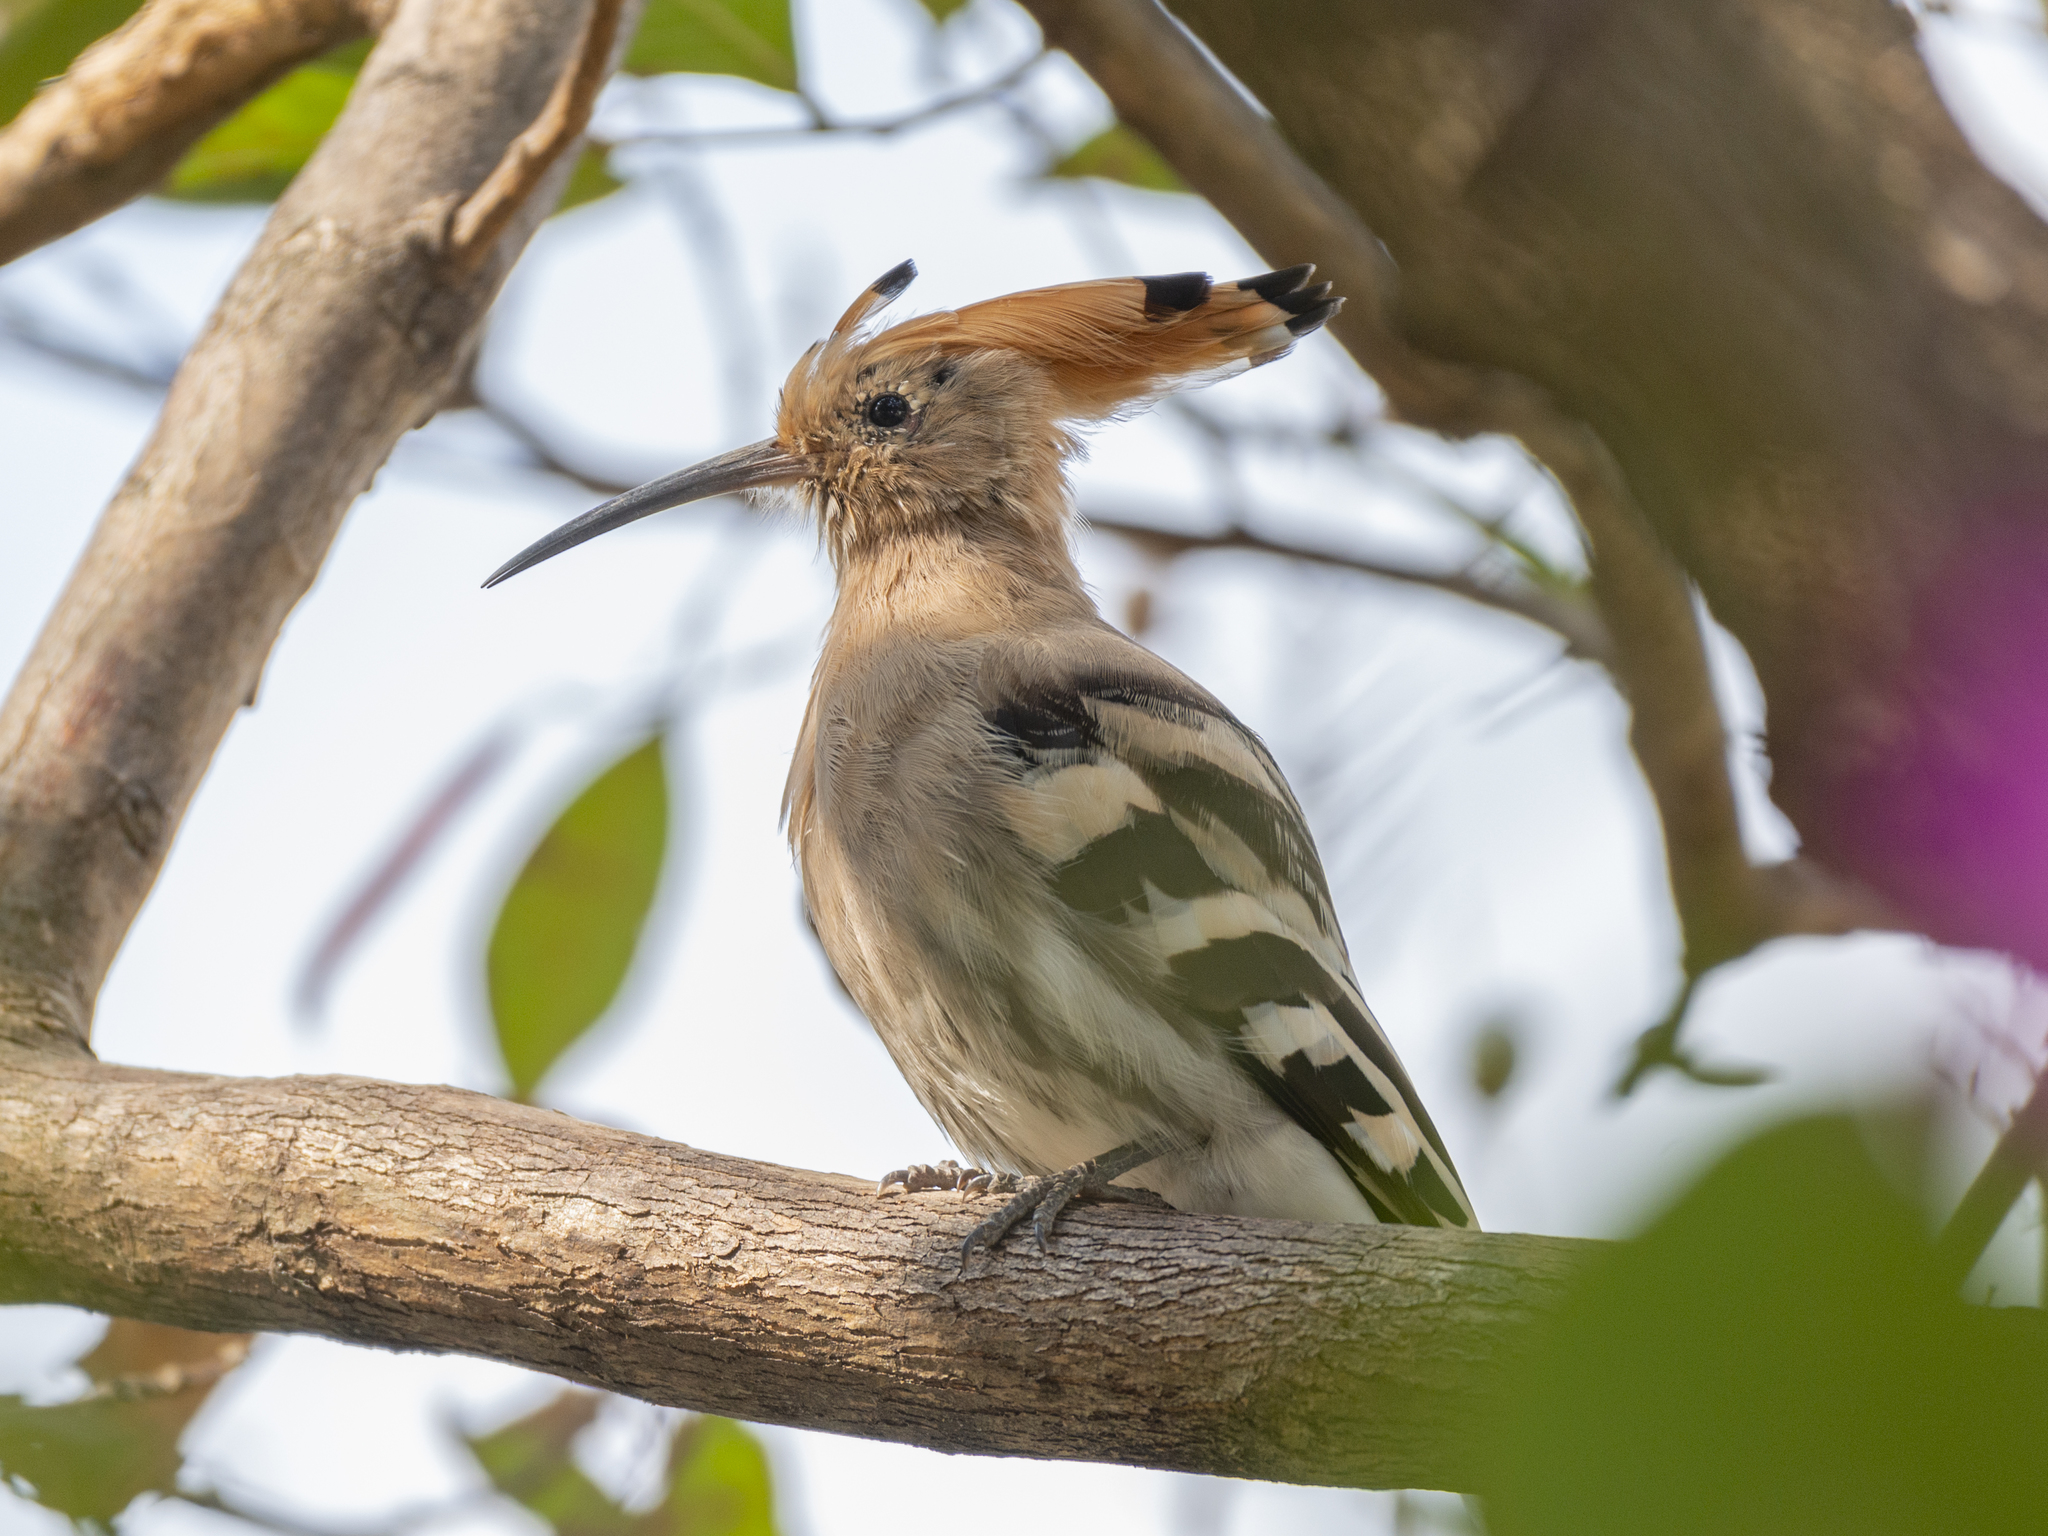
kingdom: Animalia
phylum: Chordata
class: Aves
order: Bucerotiformes
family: Upupidae
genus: Upupa
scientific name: Upupa epops
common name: Eurasian hoopoe
